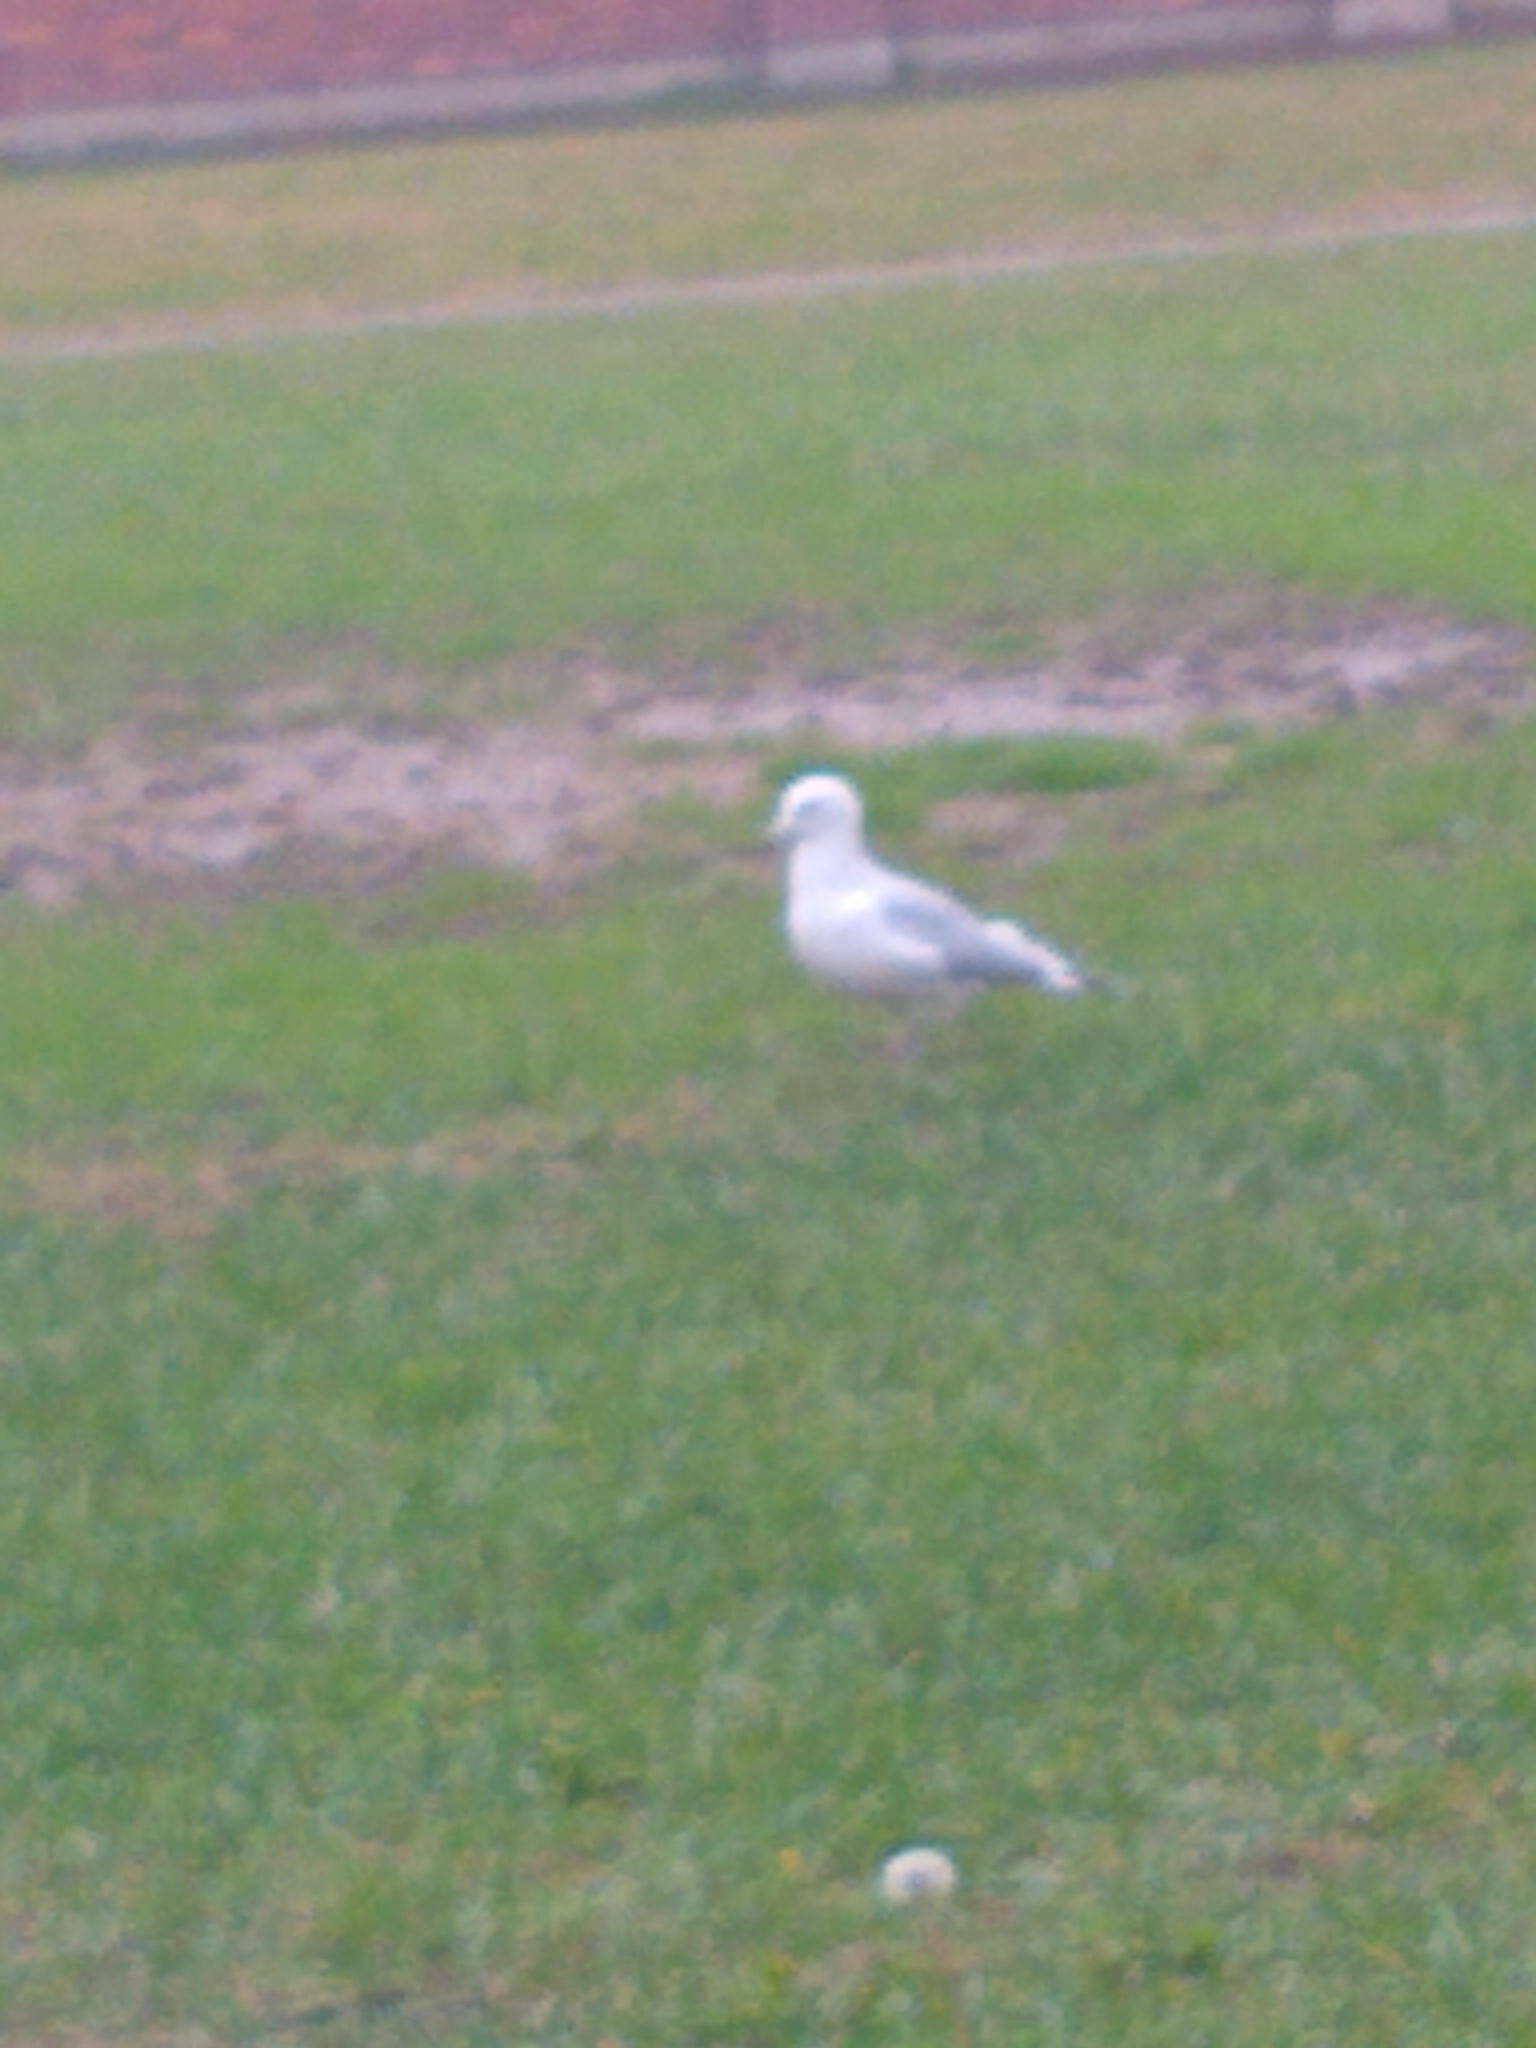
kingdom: Animalia
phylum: Chordata
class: Aves
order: Charadriiformes
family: Laridae
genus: Larus
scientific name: Larus delawarensis
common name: Ring-billed gull
